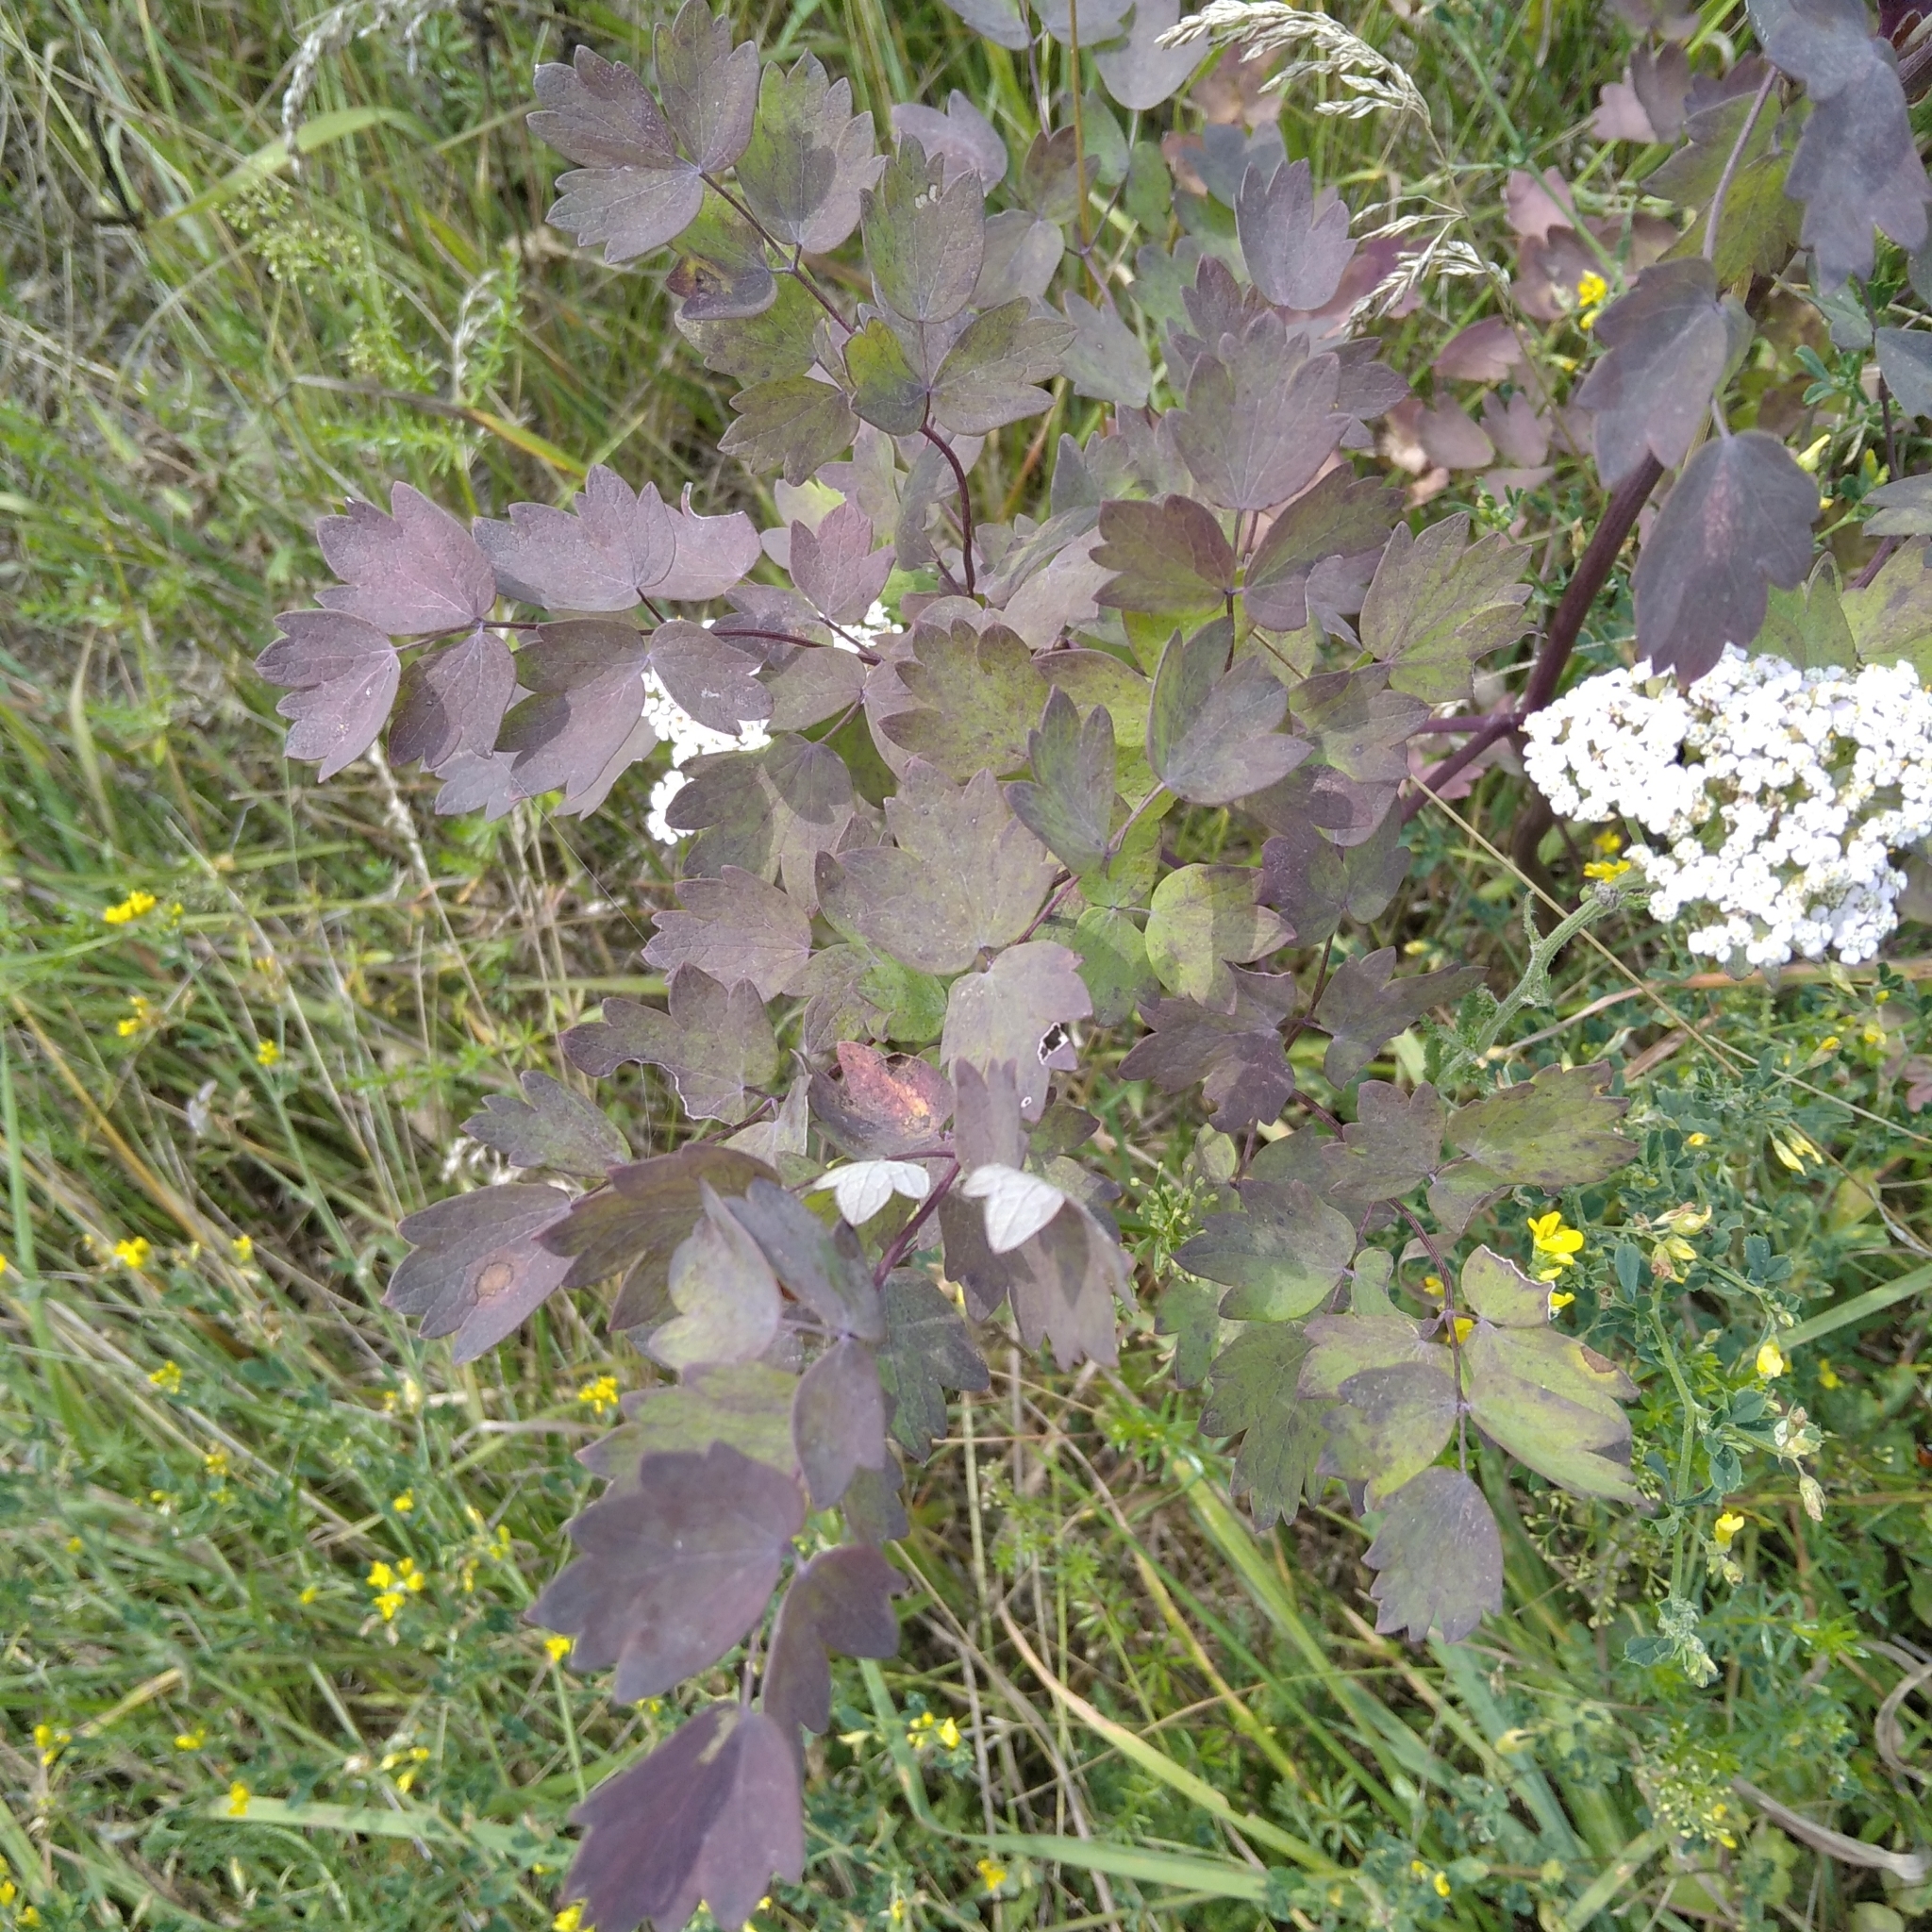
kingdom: Plantae
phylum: Tracheophyta
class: Magnoliopsida
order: Ranunculales
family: Ranunculaceae
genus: Thalictrum
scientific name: Thalictrum minus
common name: Lesser meadow-rue
